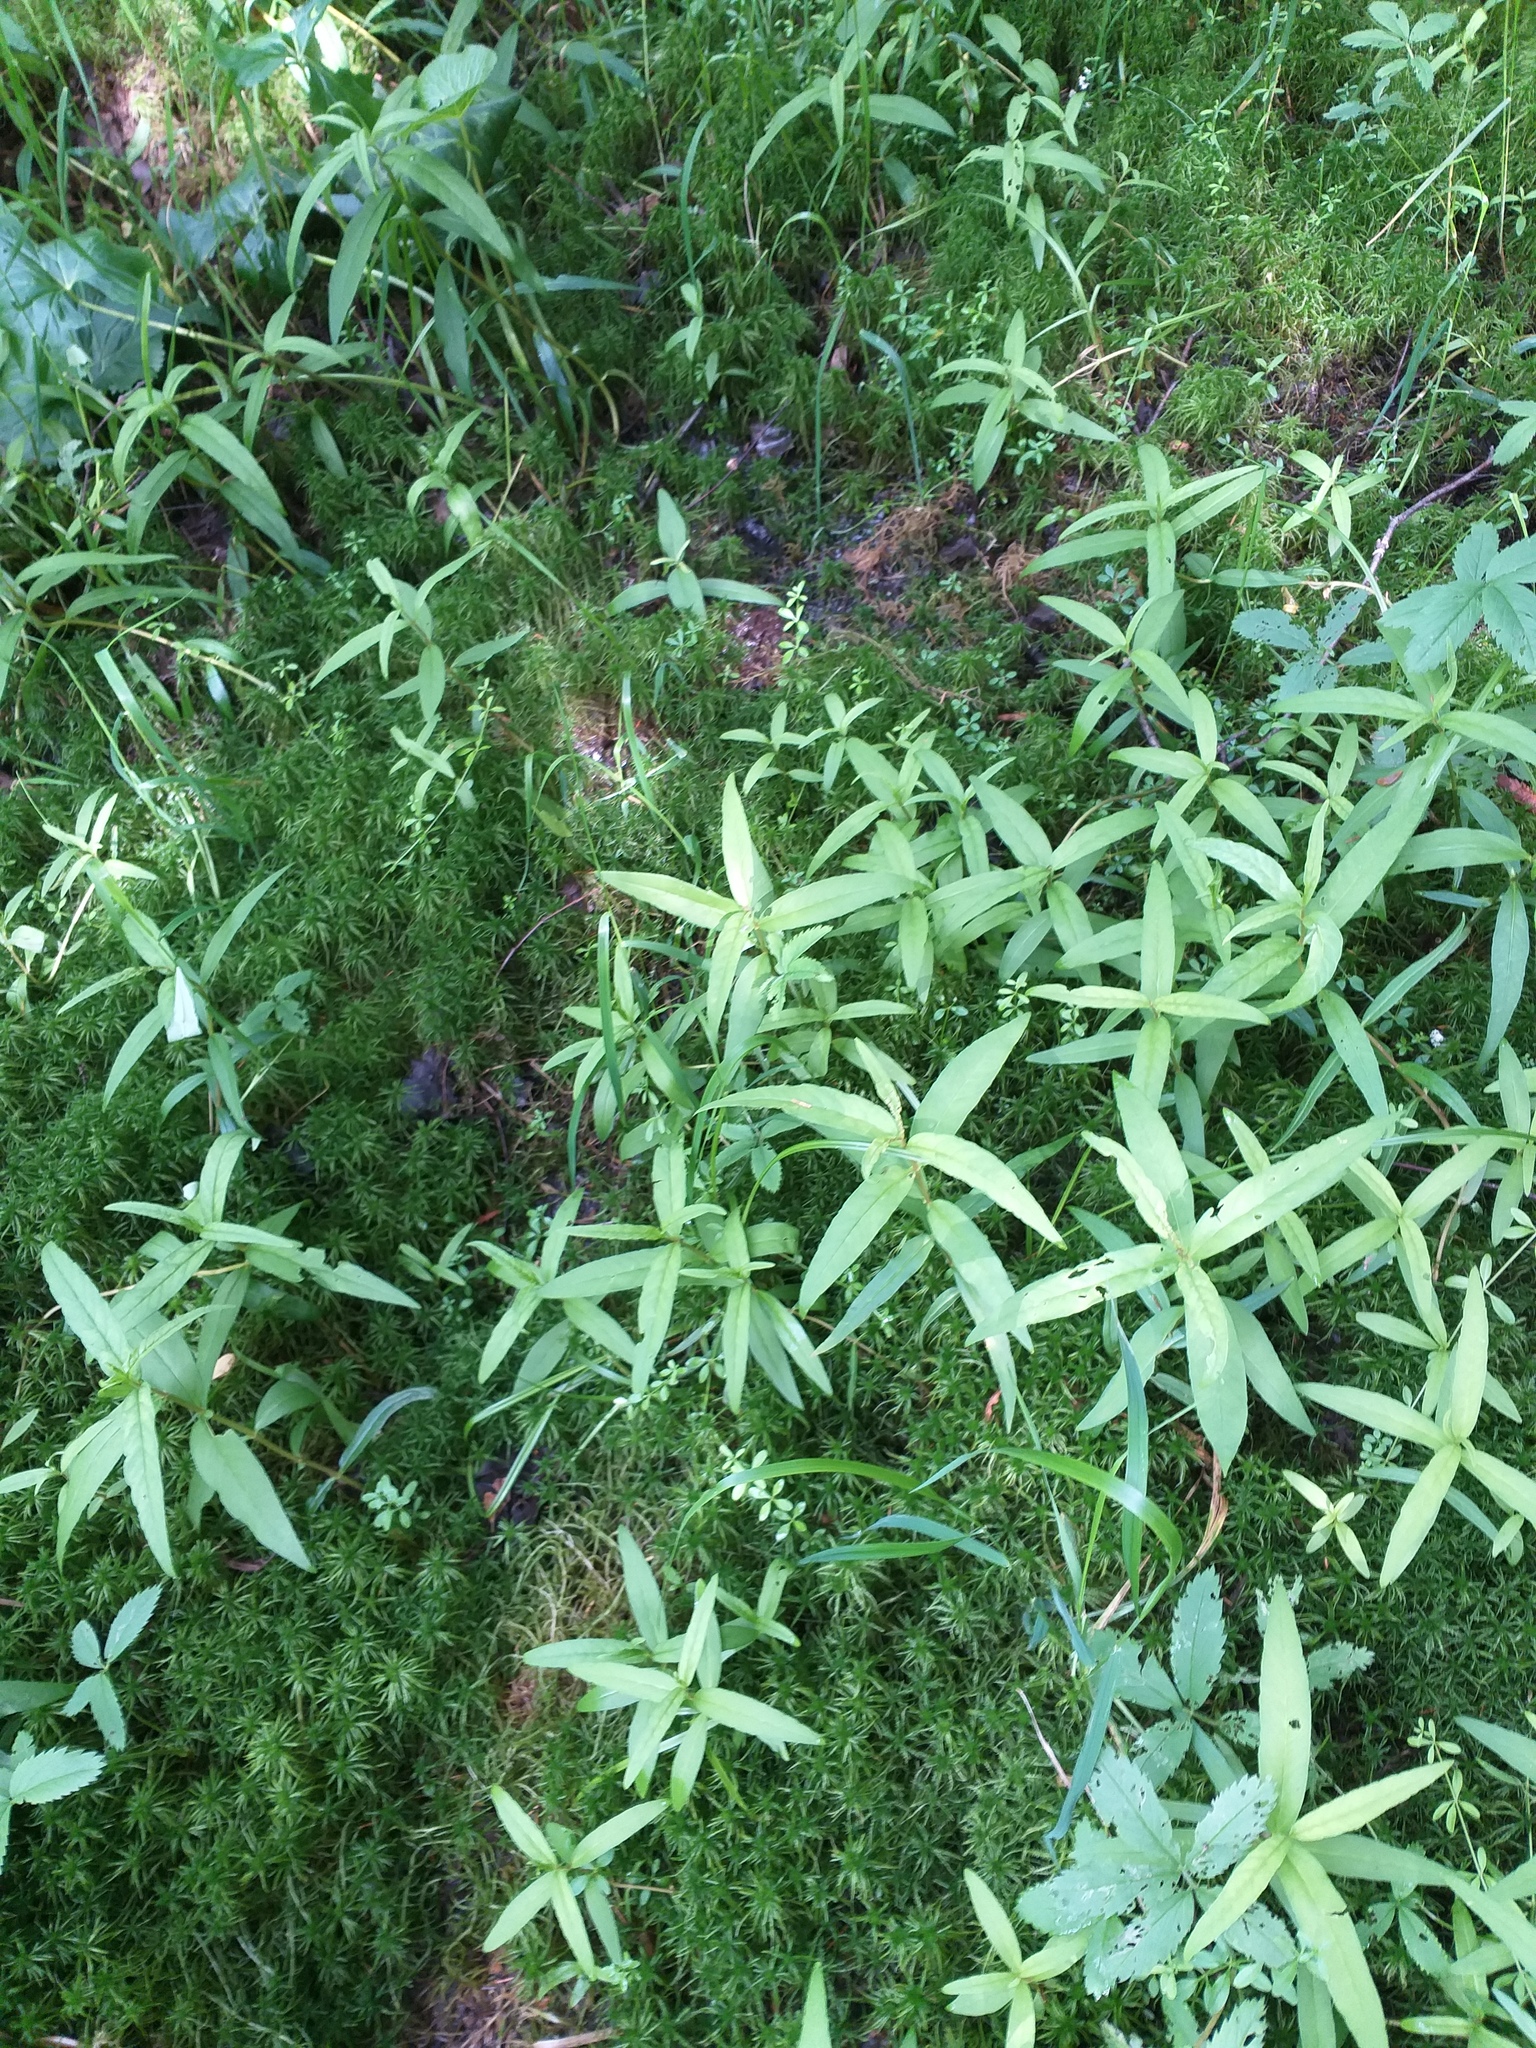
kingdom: Plantae
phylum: Tracheophyta
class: Magnoliopsida
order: Ericales
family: Primulaceae
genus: Lysimachia
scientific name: Lysimachia thyrsiflora
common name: Tufted loosestrife
